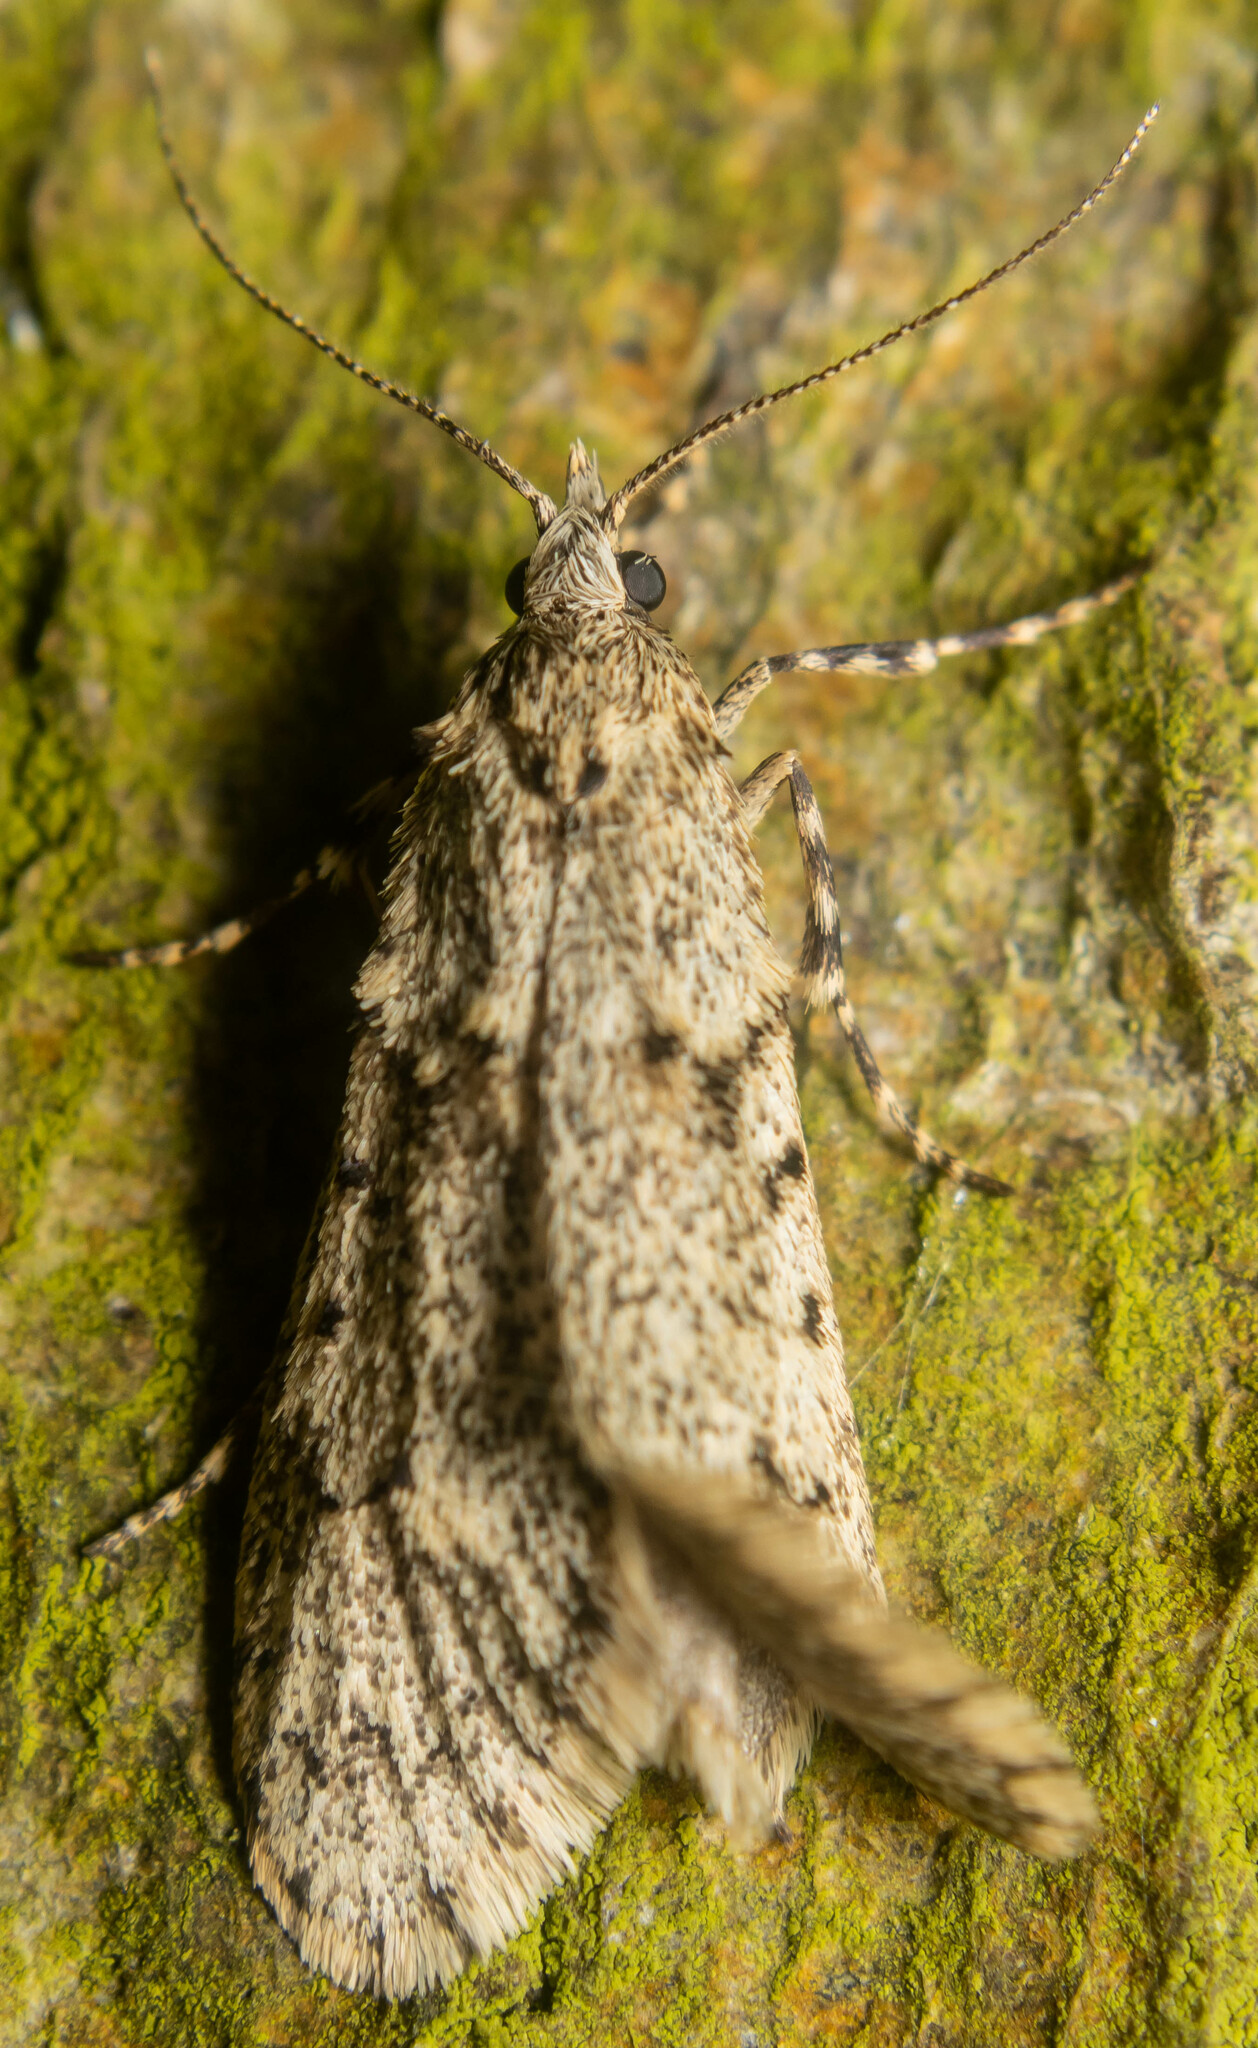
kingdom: Animalia
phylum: Arthropoda
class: Insecta
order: Lepidoptera
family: Lypusidae
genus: Diurnea
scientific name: Diurnea fagella
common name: March tubic
